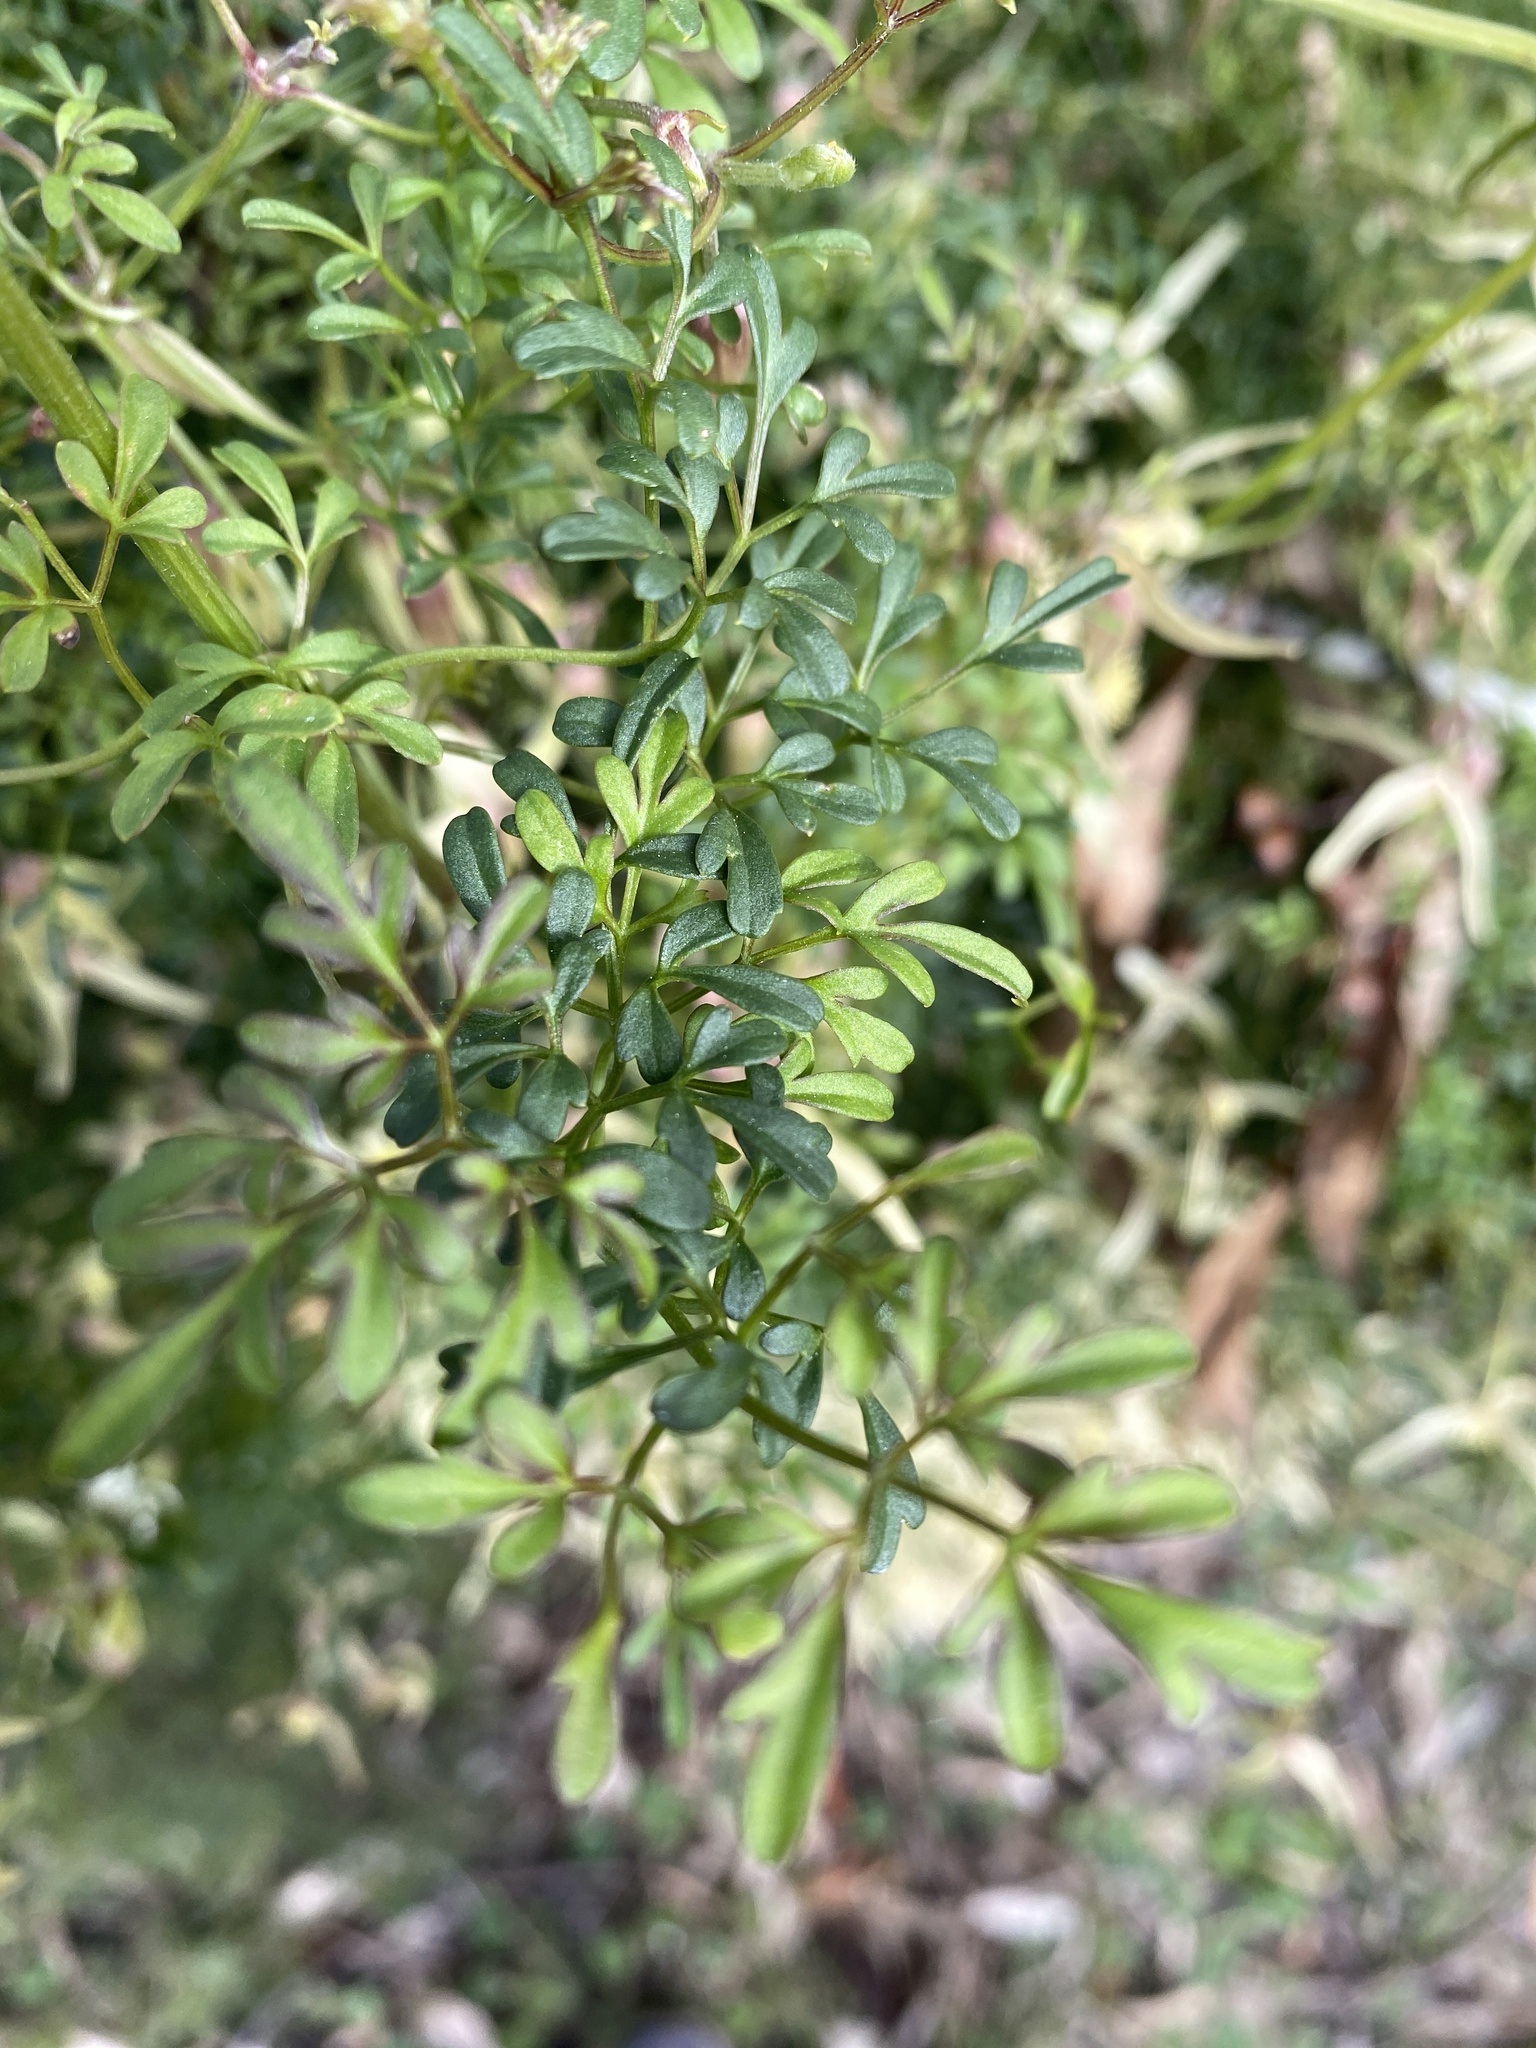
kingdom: Plantae
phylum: Tracheophyta
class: Magnoliopsida
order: Ranunculales
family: Ranunculaceae
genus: Clematis
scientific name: Clematis leptophylla
